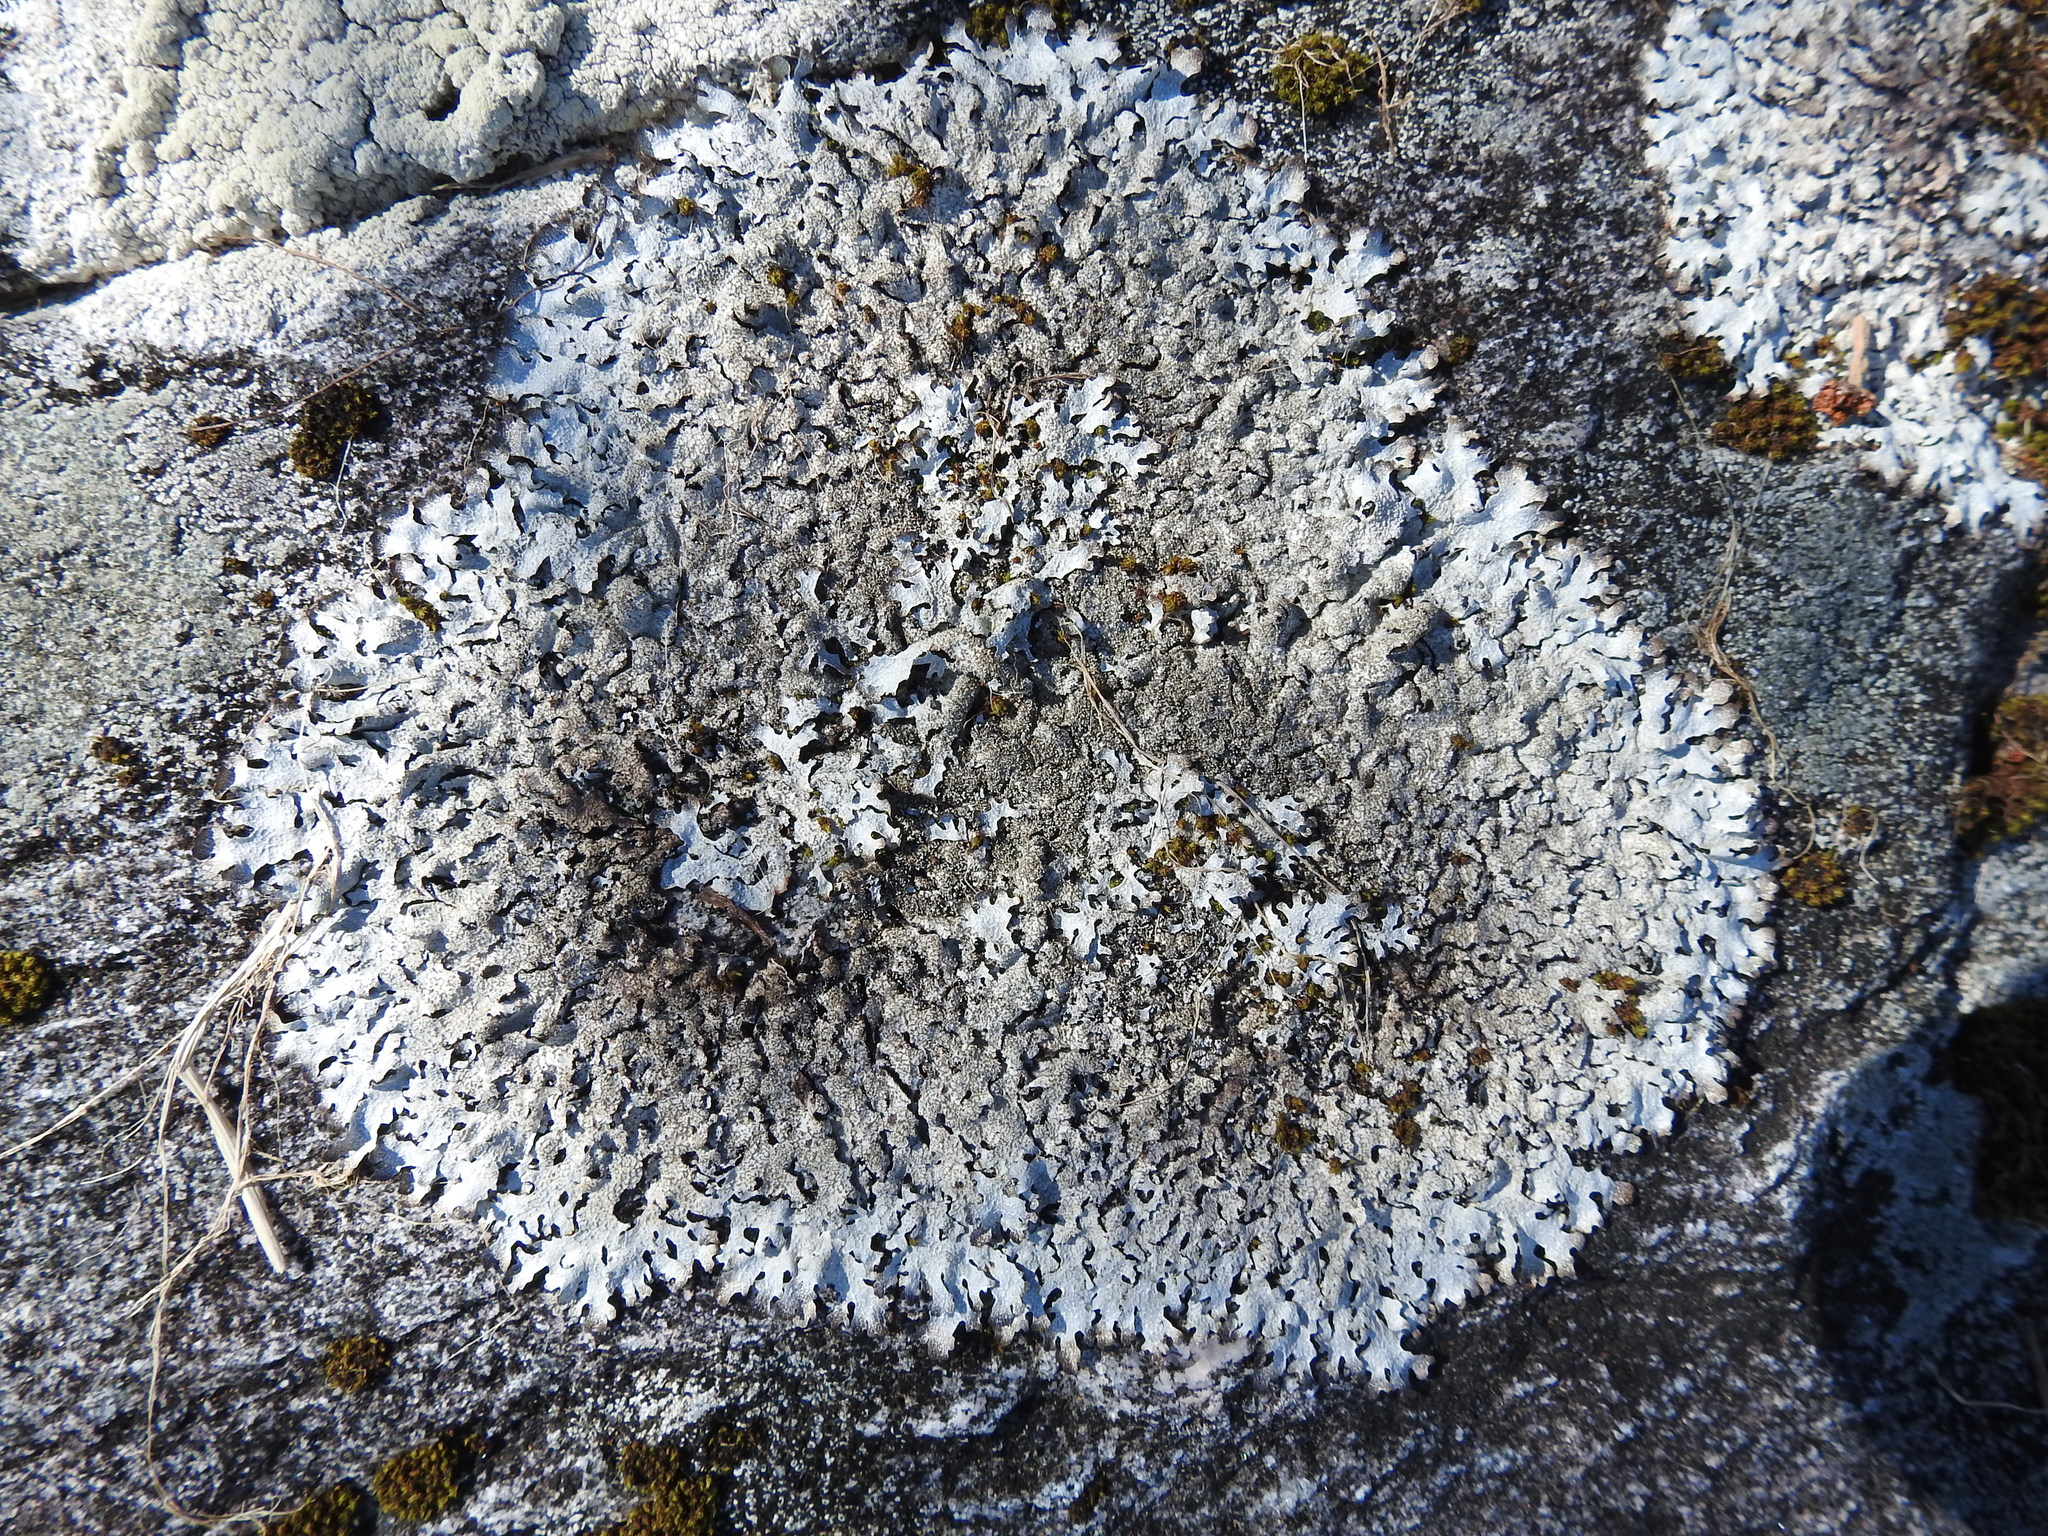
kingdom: Fungi
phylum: Ascomycota
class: Lecanoromycetes
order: Lecanorales
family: Parmeliaceae
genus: Parmelia
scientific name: Parmelia saxatilis
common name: Salted shield lichen
